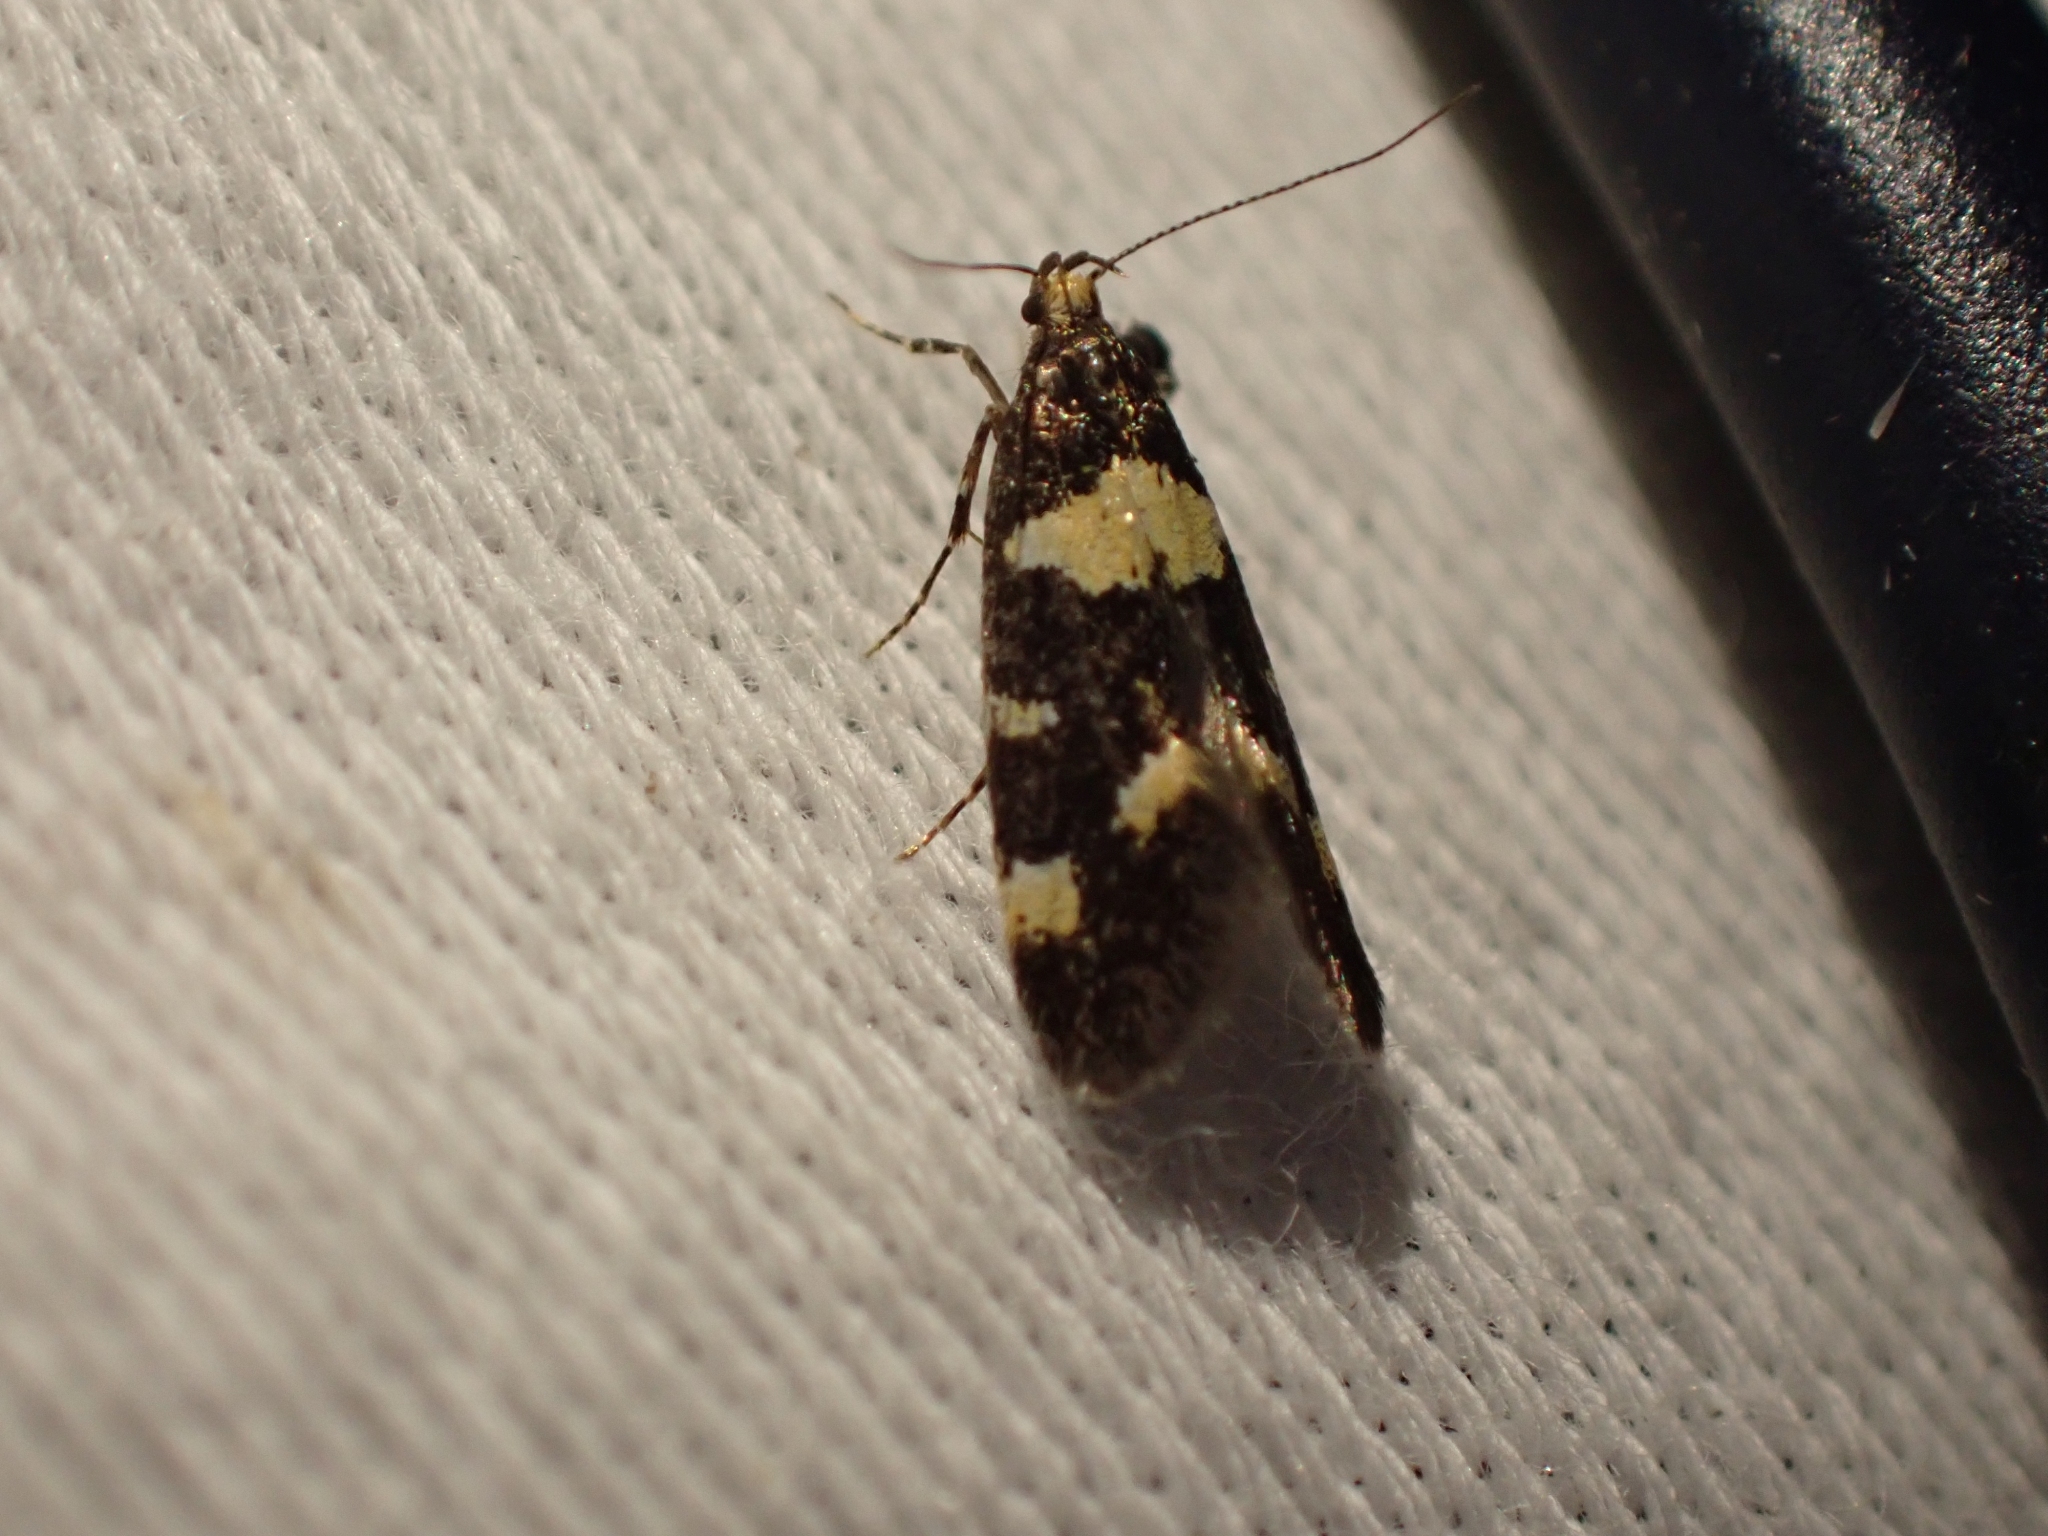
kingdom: Animalia
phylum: Arthropoda
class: Insecta
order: Lepidoptera
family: Oecophoridae
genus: Brymblia
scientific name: Brymblia quadrimaculella
